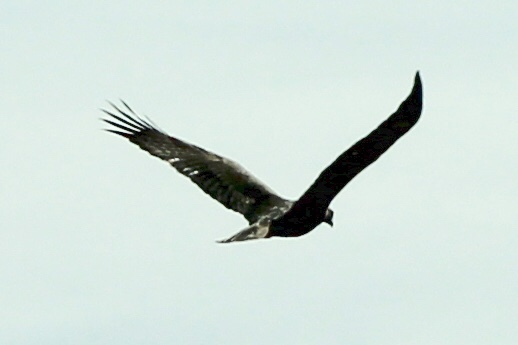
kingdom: Animalia
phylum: Chordata
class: Aves
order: Accipitriformes
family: Accipitridae
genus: Aquila
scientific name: Aquila chrysaetos
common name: Golden eagle
